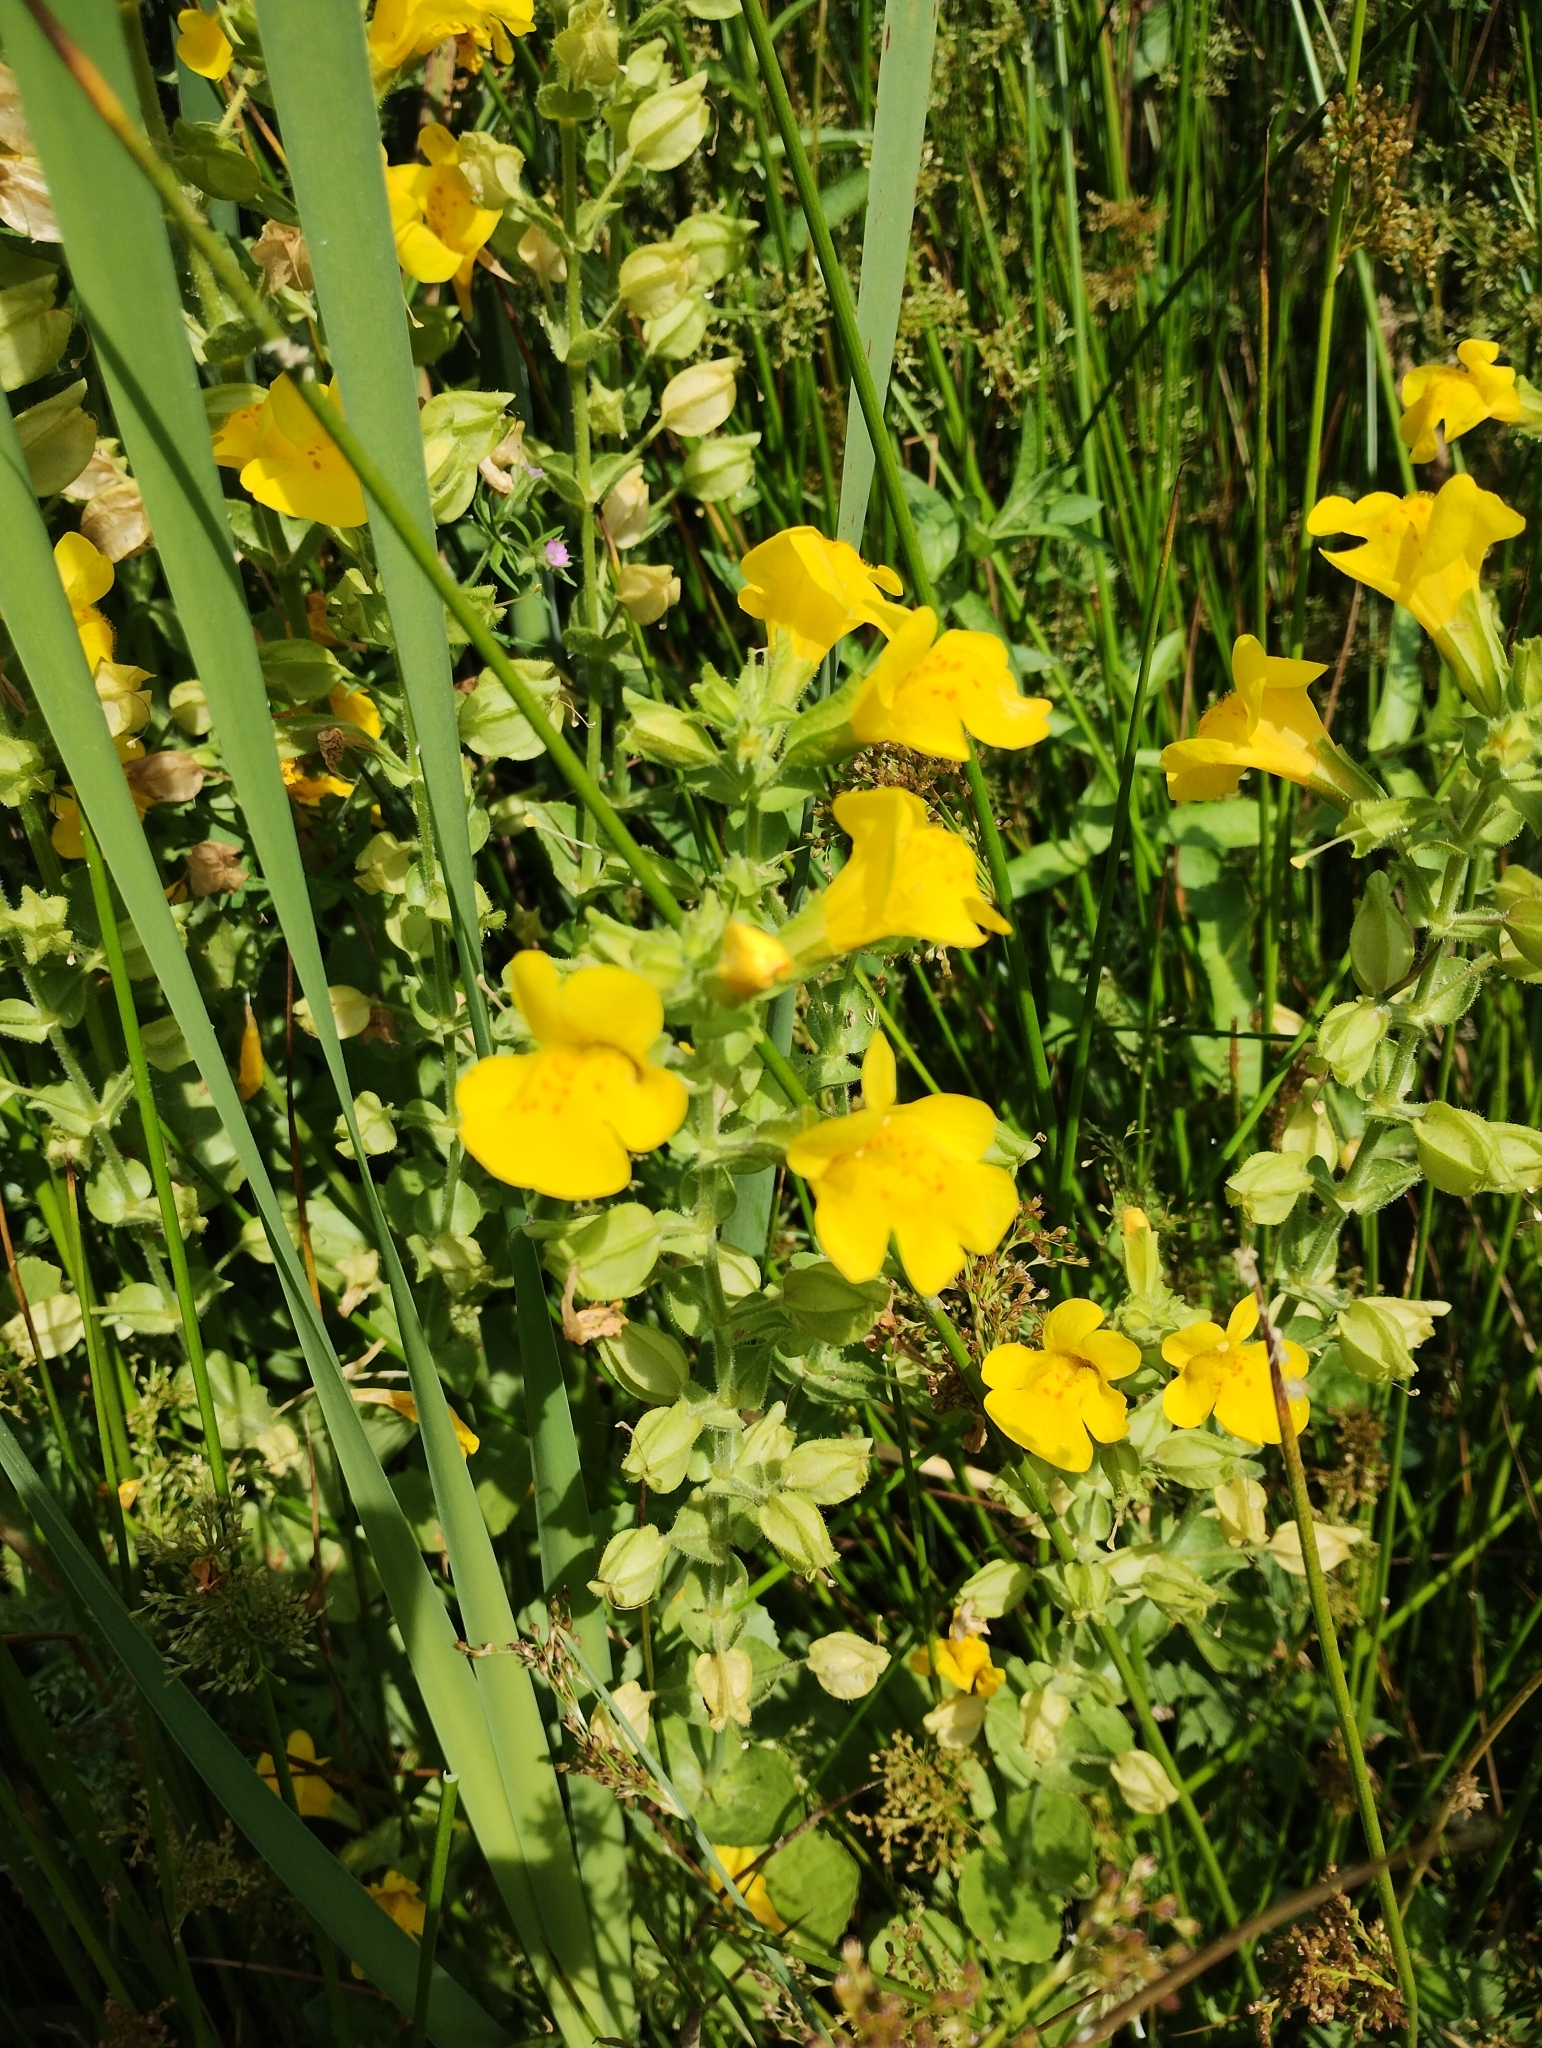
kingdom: Plantae
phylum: Tracheophyta
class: Magnoliopsida
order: Lamiales
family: Phrymaceae
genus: Erythranthe
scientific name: Erythranthe guttata
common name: Monkeyflower
